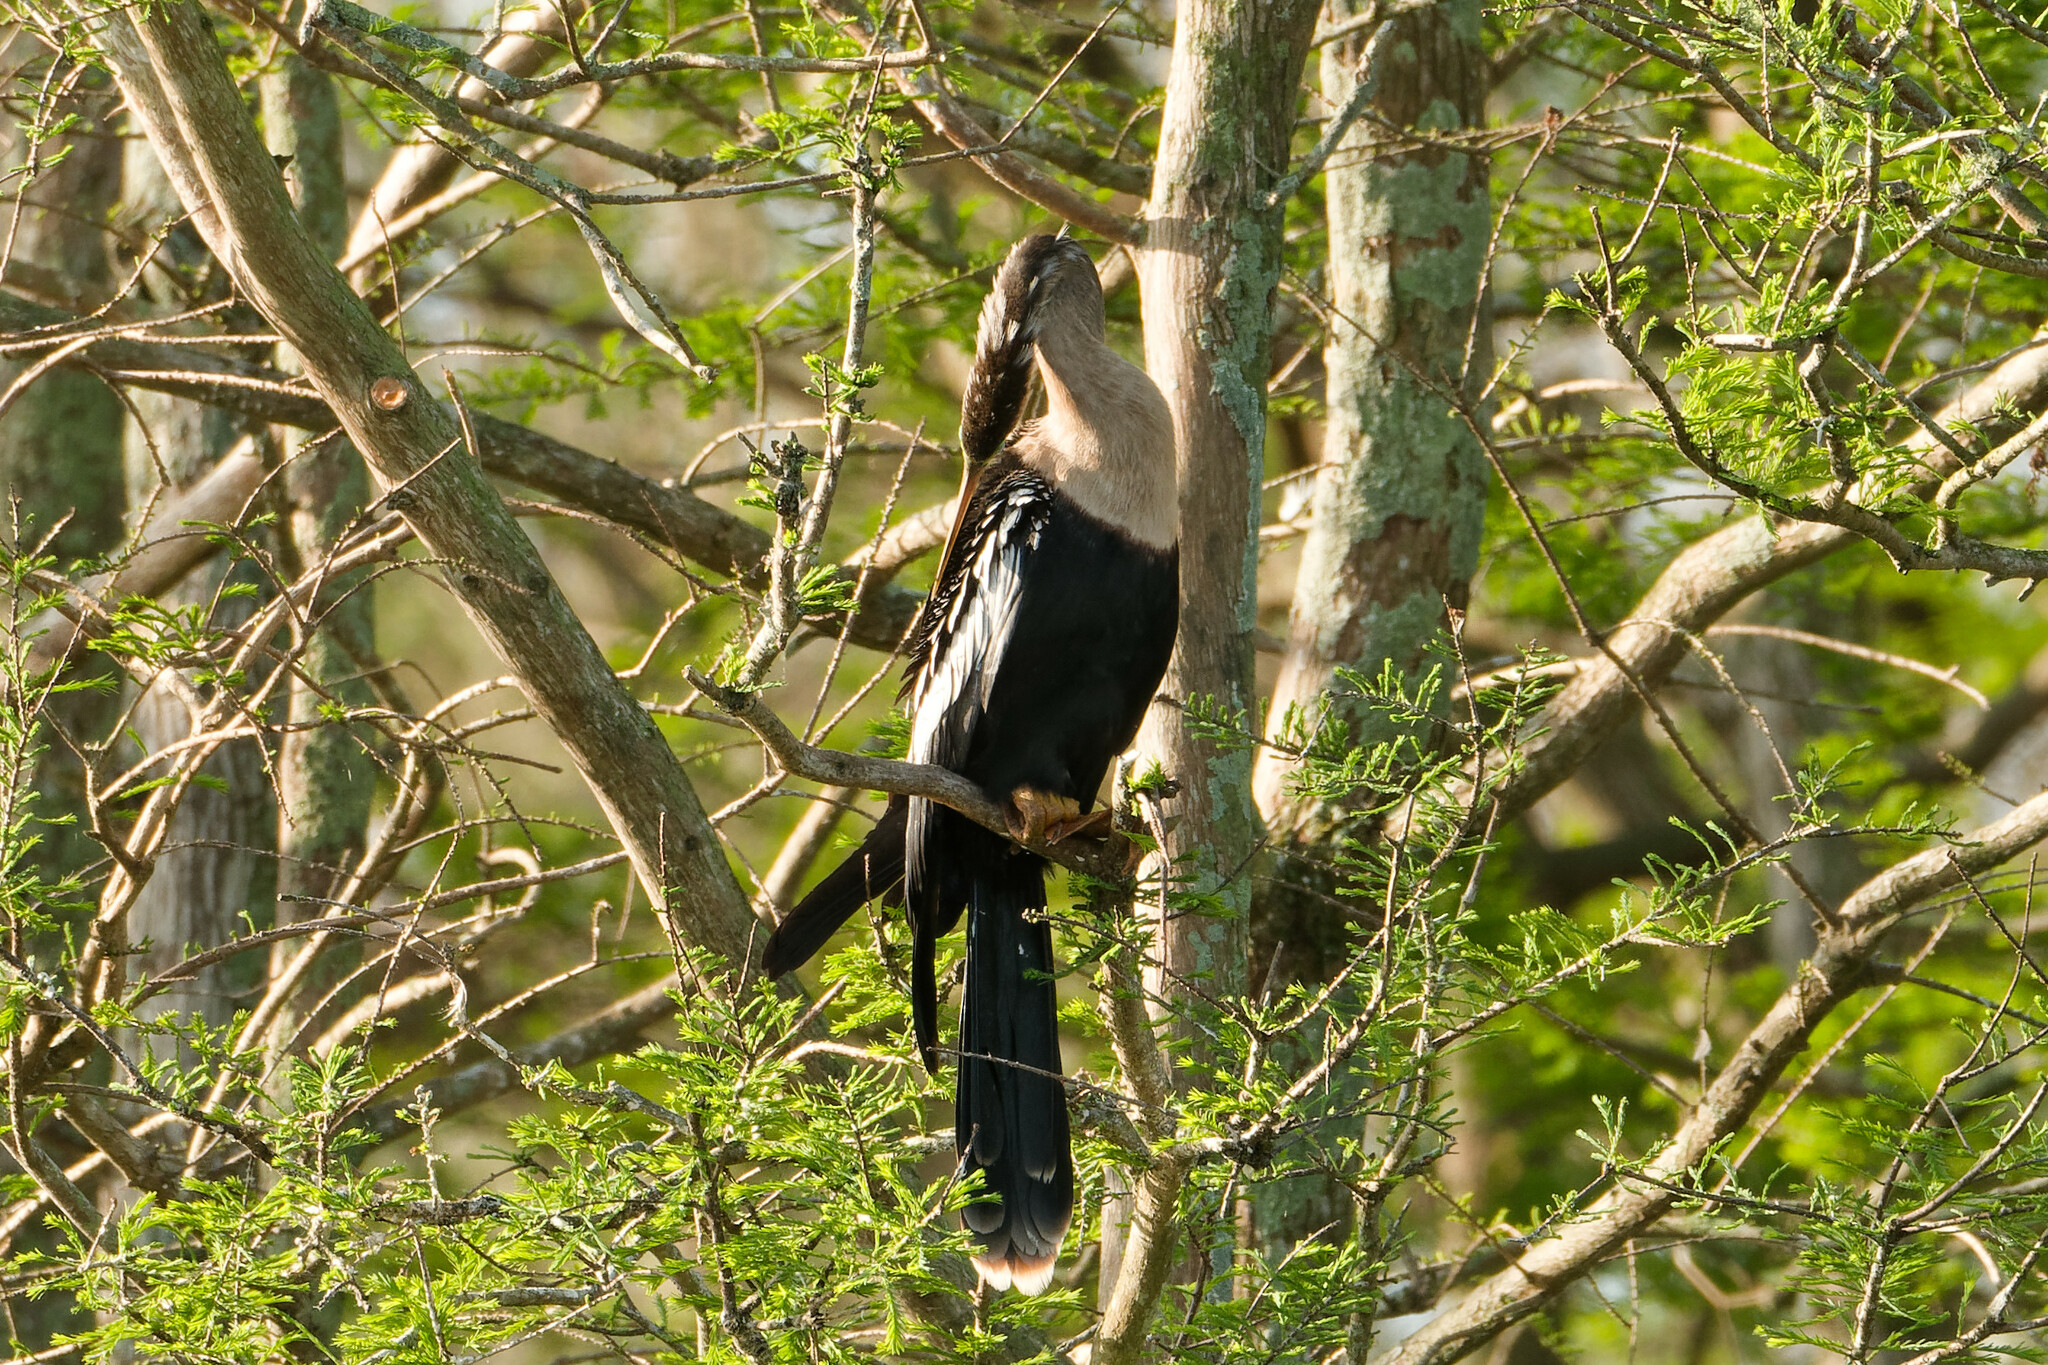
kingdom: Animalia
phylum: Chordata
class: Aves
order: Suliformes
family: Anhingidae
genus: Anhinga
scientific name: Anhinga anhinga
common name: Anhinga
